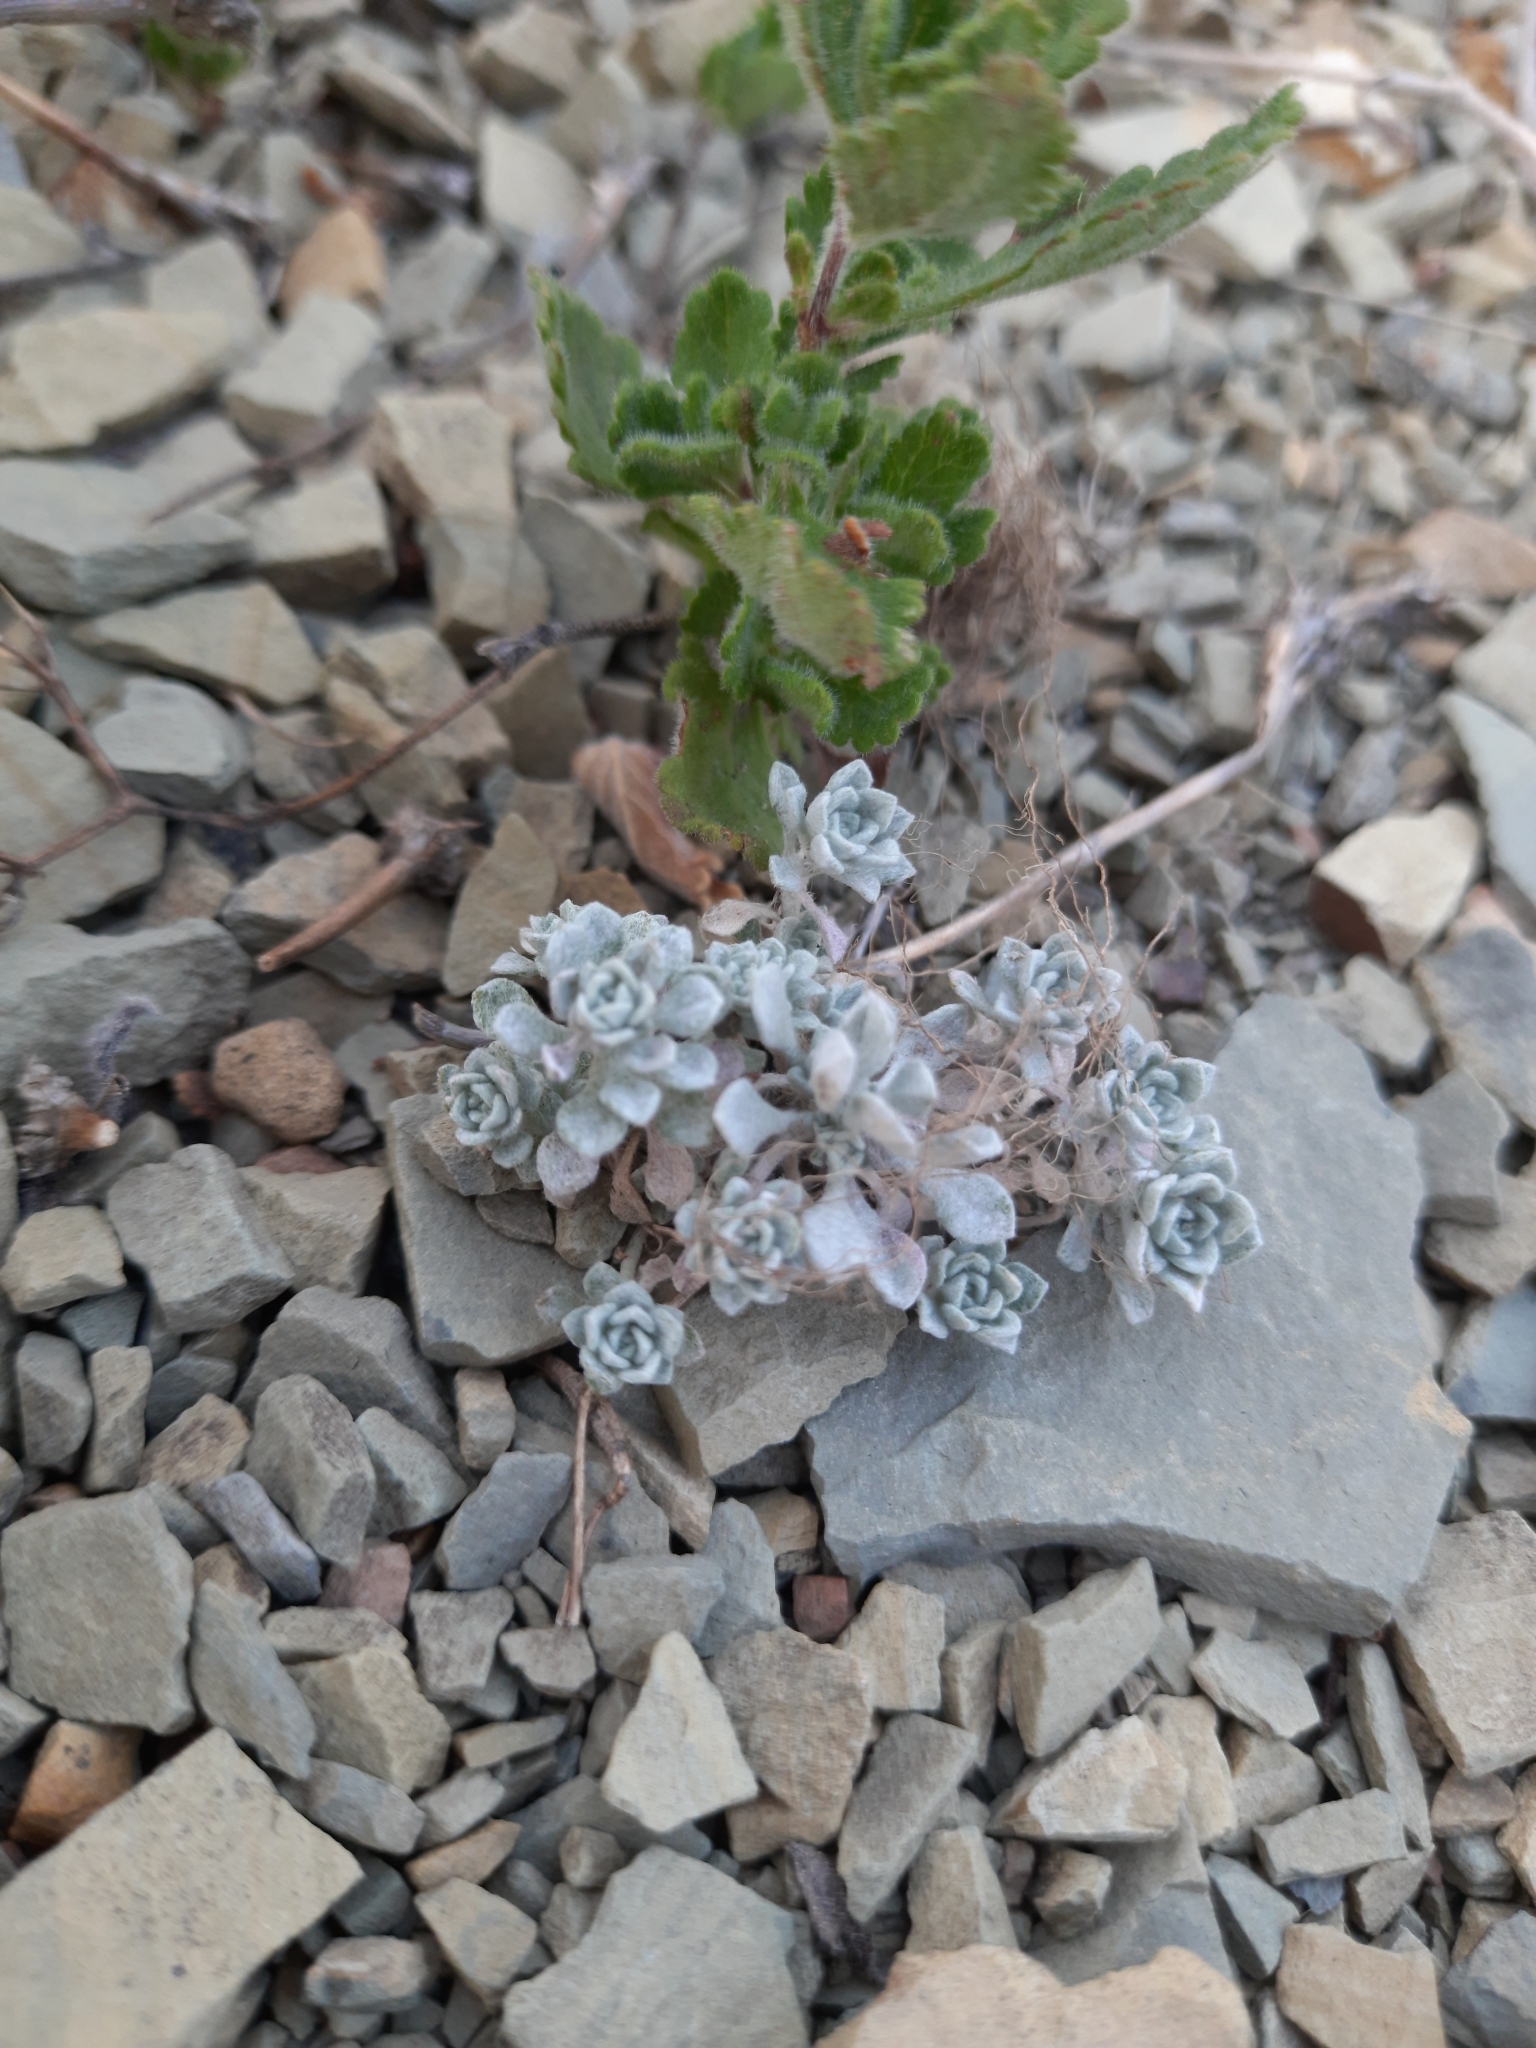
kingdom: Plantae
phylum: Tracheophyta
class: Magnoliopsida
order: Brassicales
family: Brassicaceae
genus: Odontarrhena
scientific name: Odontarrhena obtusifolia
